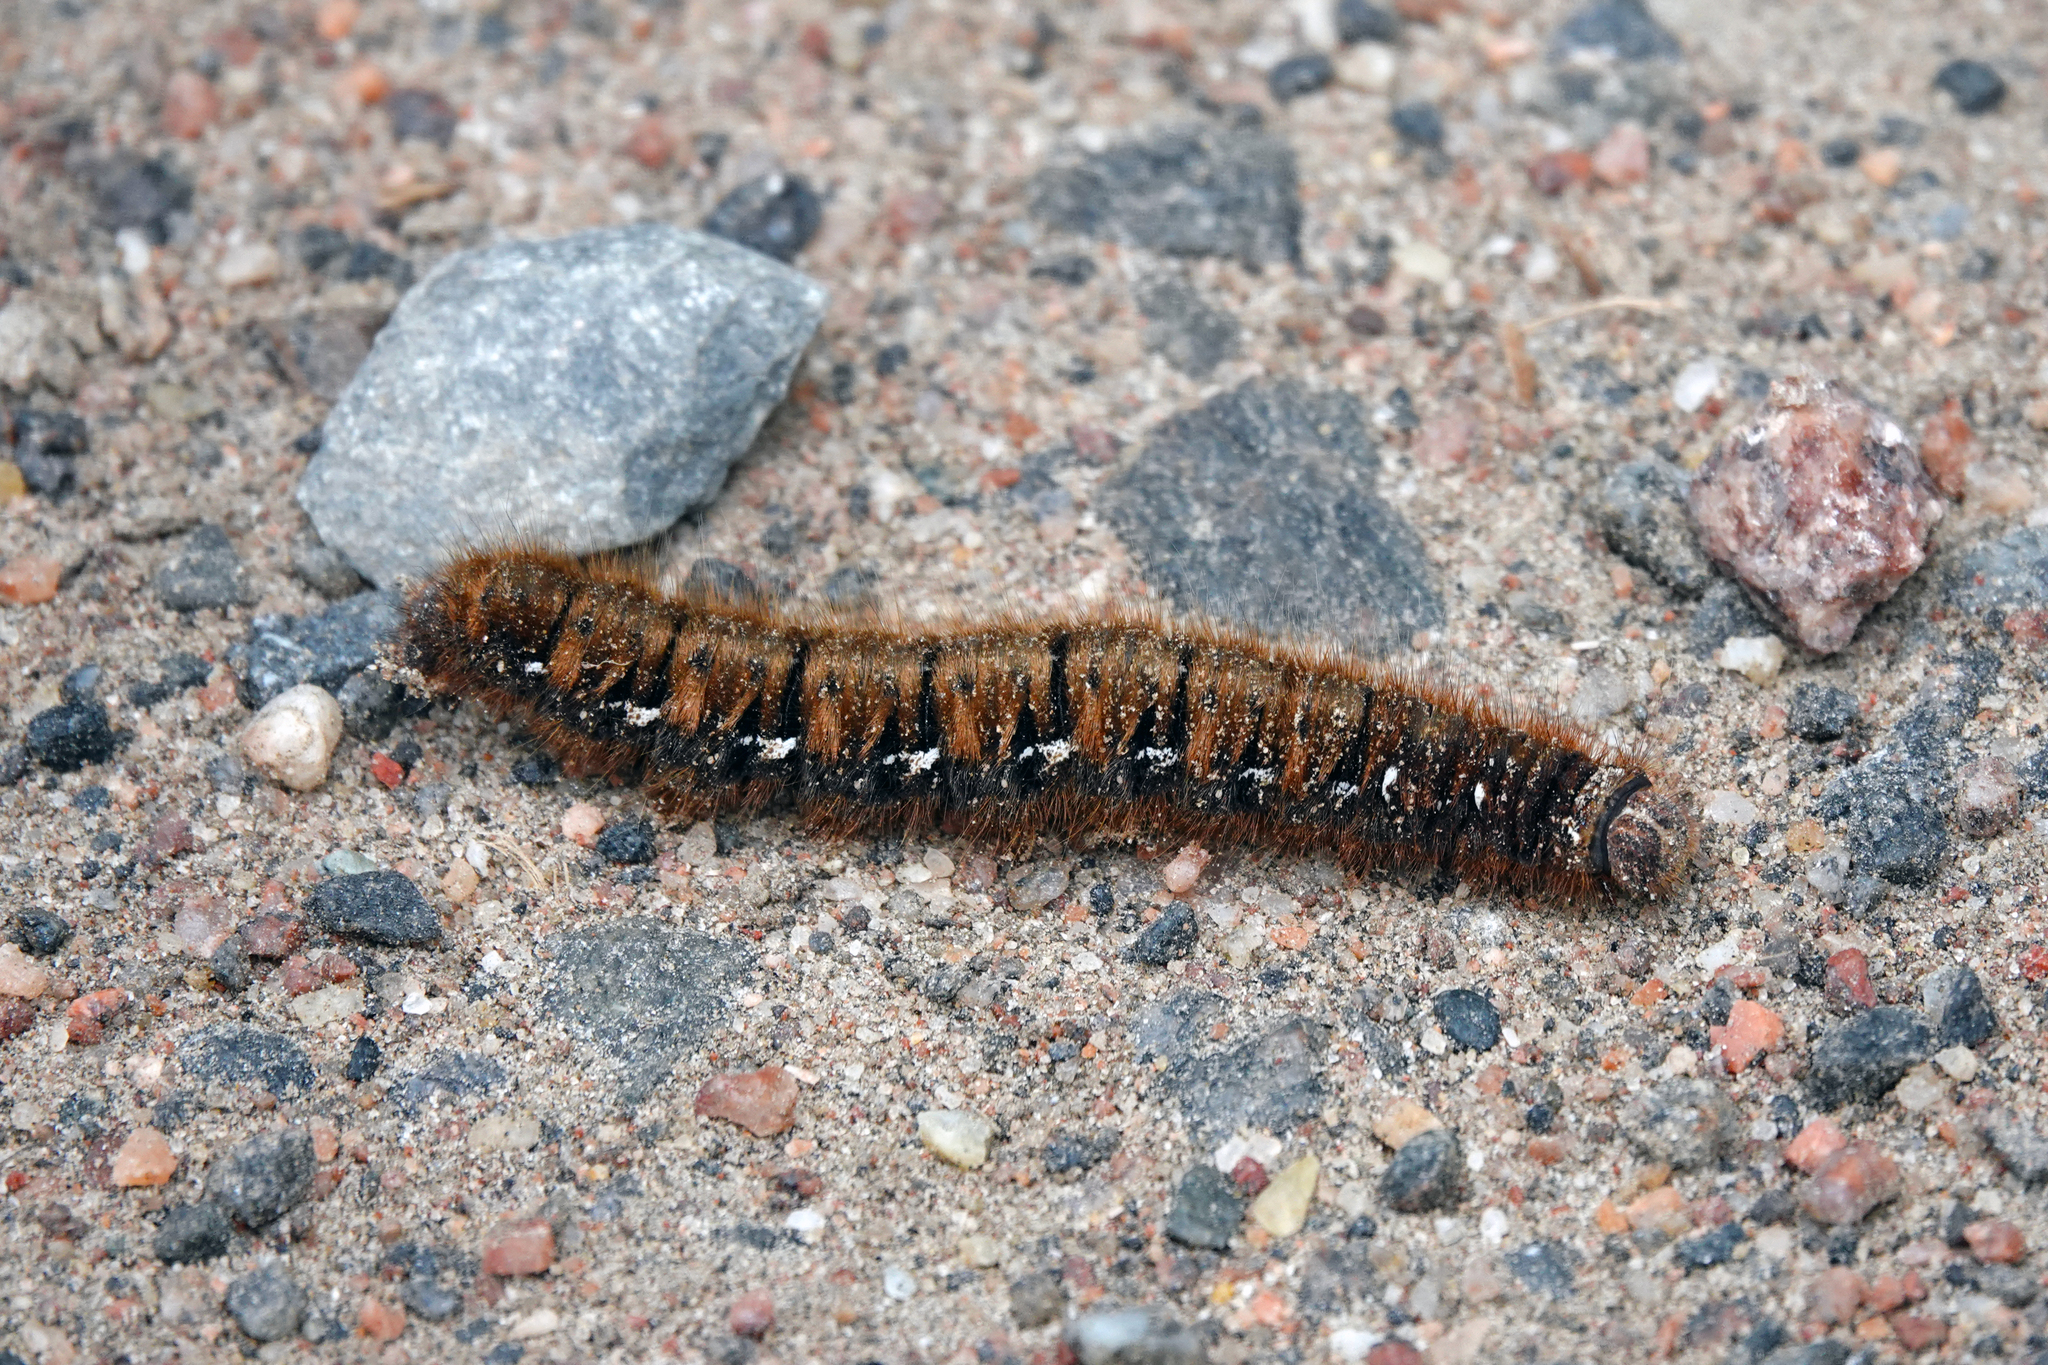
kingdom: Animalia
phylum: Arthropoda
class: Insecta
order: Lepidoptera
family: Lasiocampidae
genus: Lasiocampa
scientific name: Lasiocampa quercus
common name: Oak eggar
